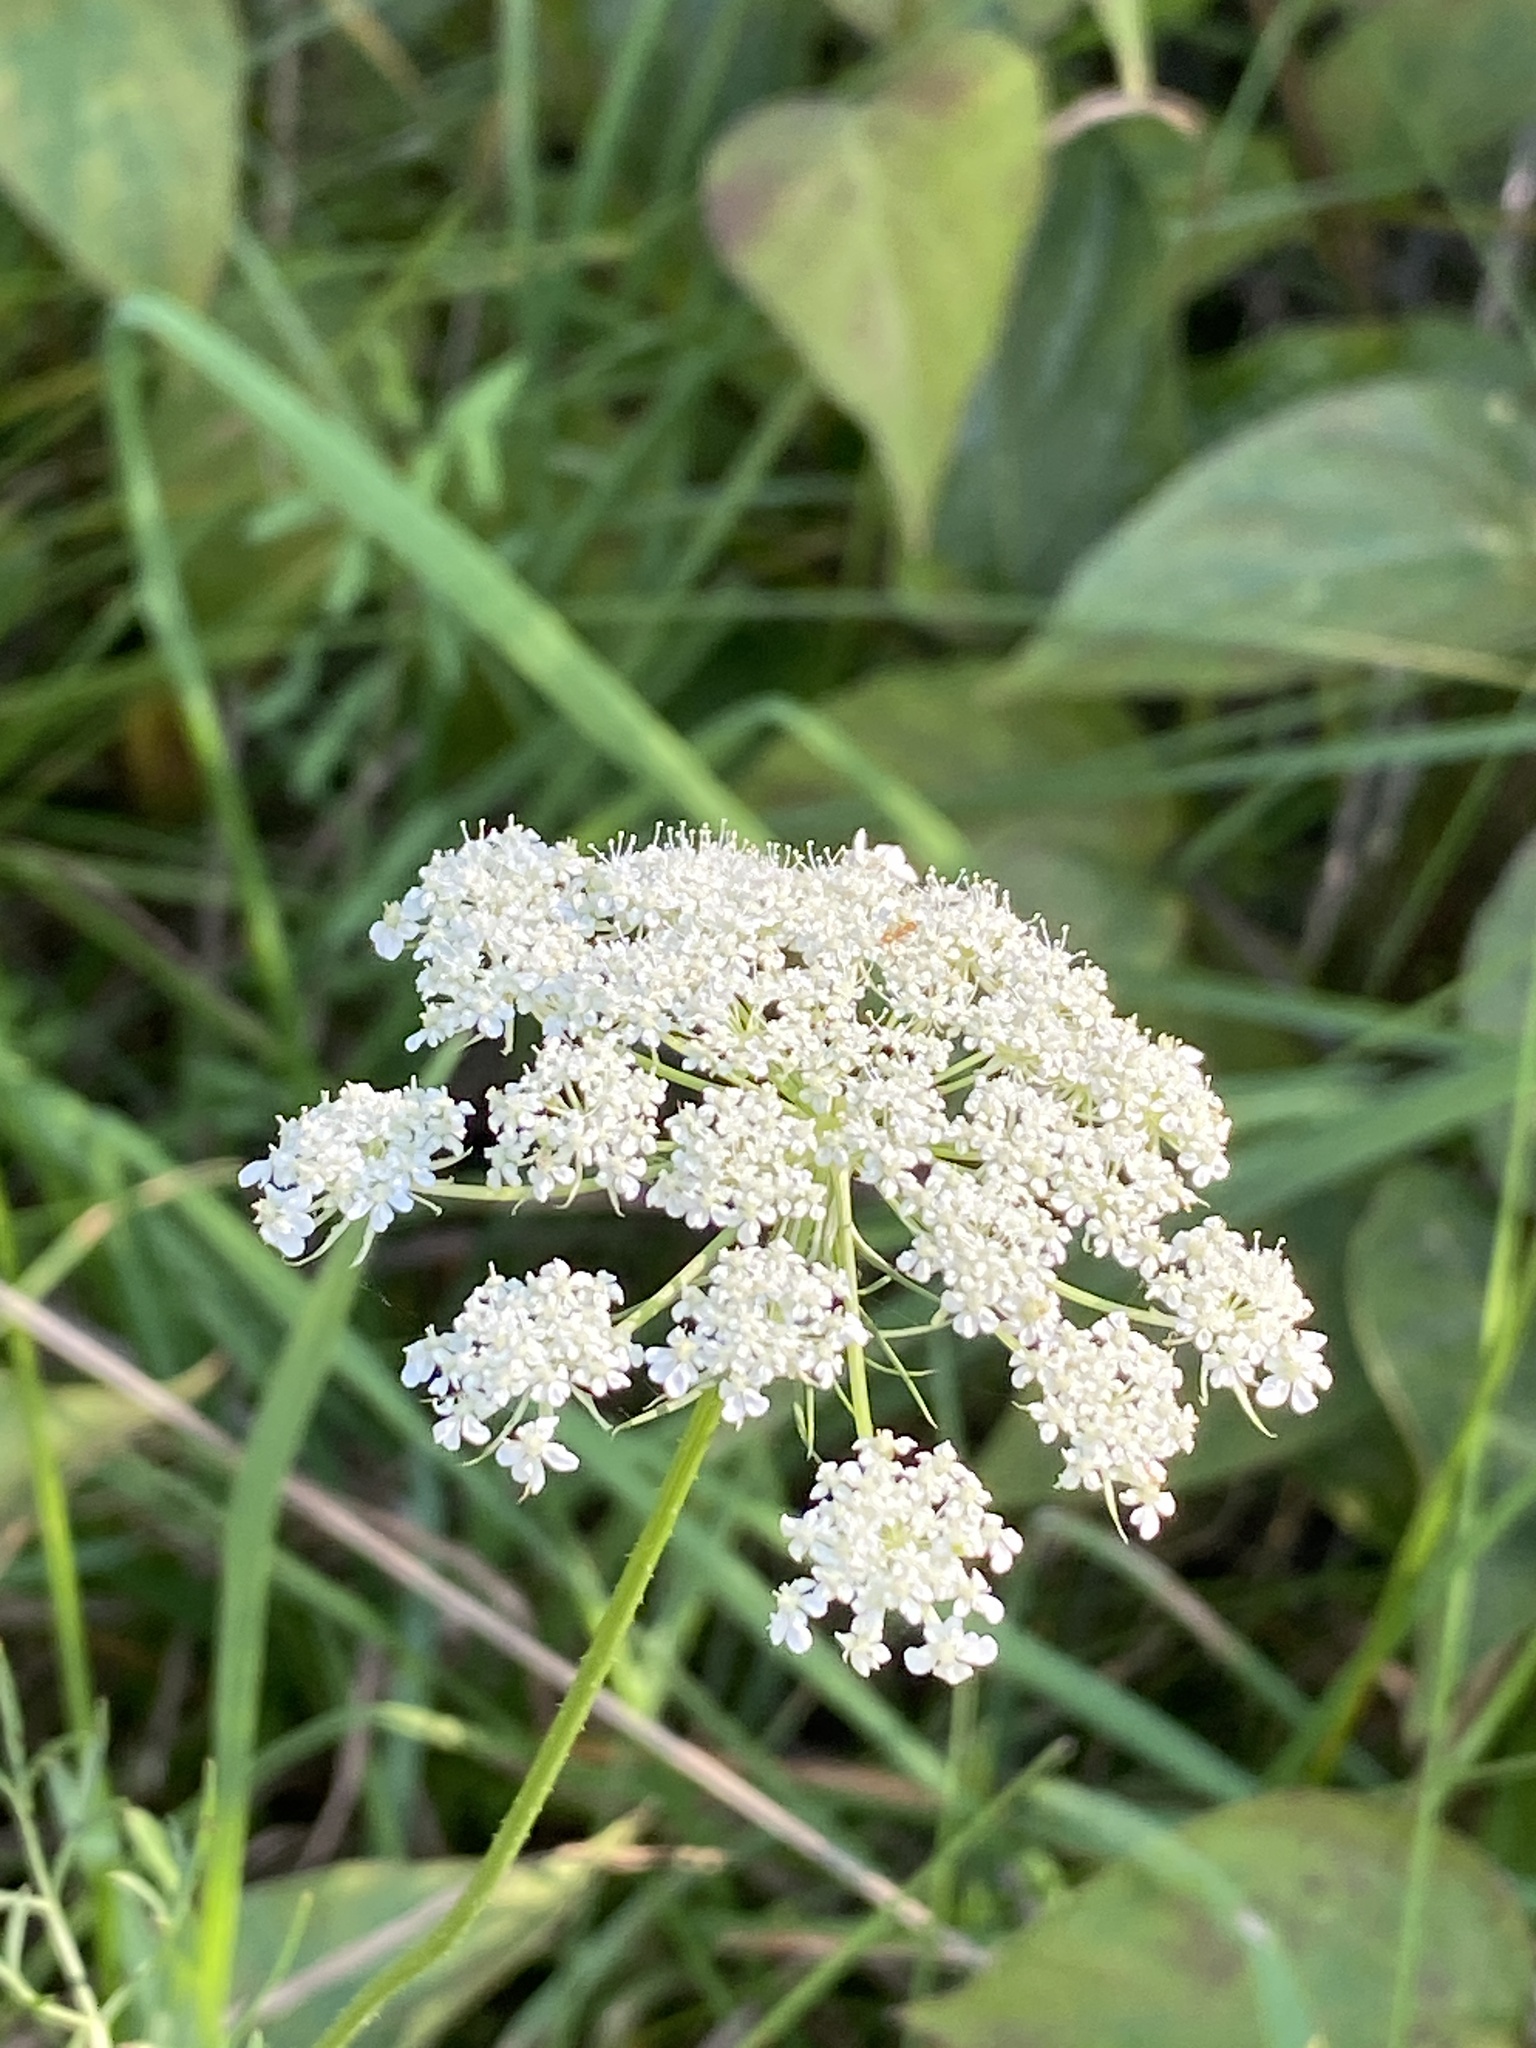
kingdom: Plantae
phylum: Tracheophyta
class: Magnoliopsida
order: Apiales
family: Apiaceae
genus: Daucus
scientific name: Daucus carota
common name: Wild carrot
